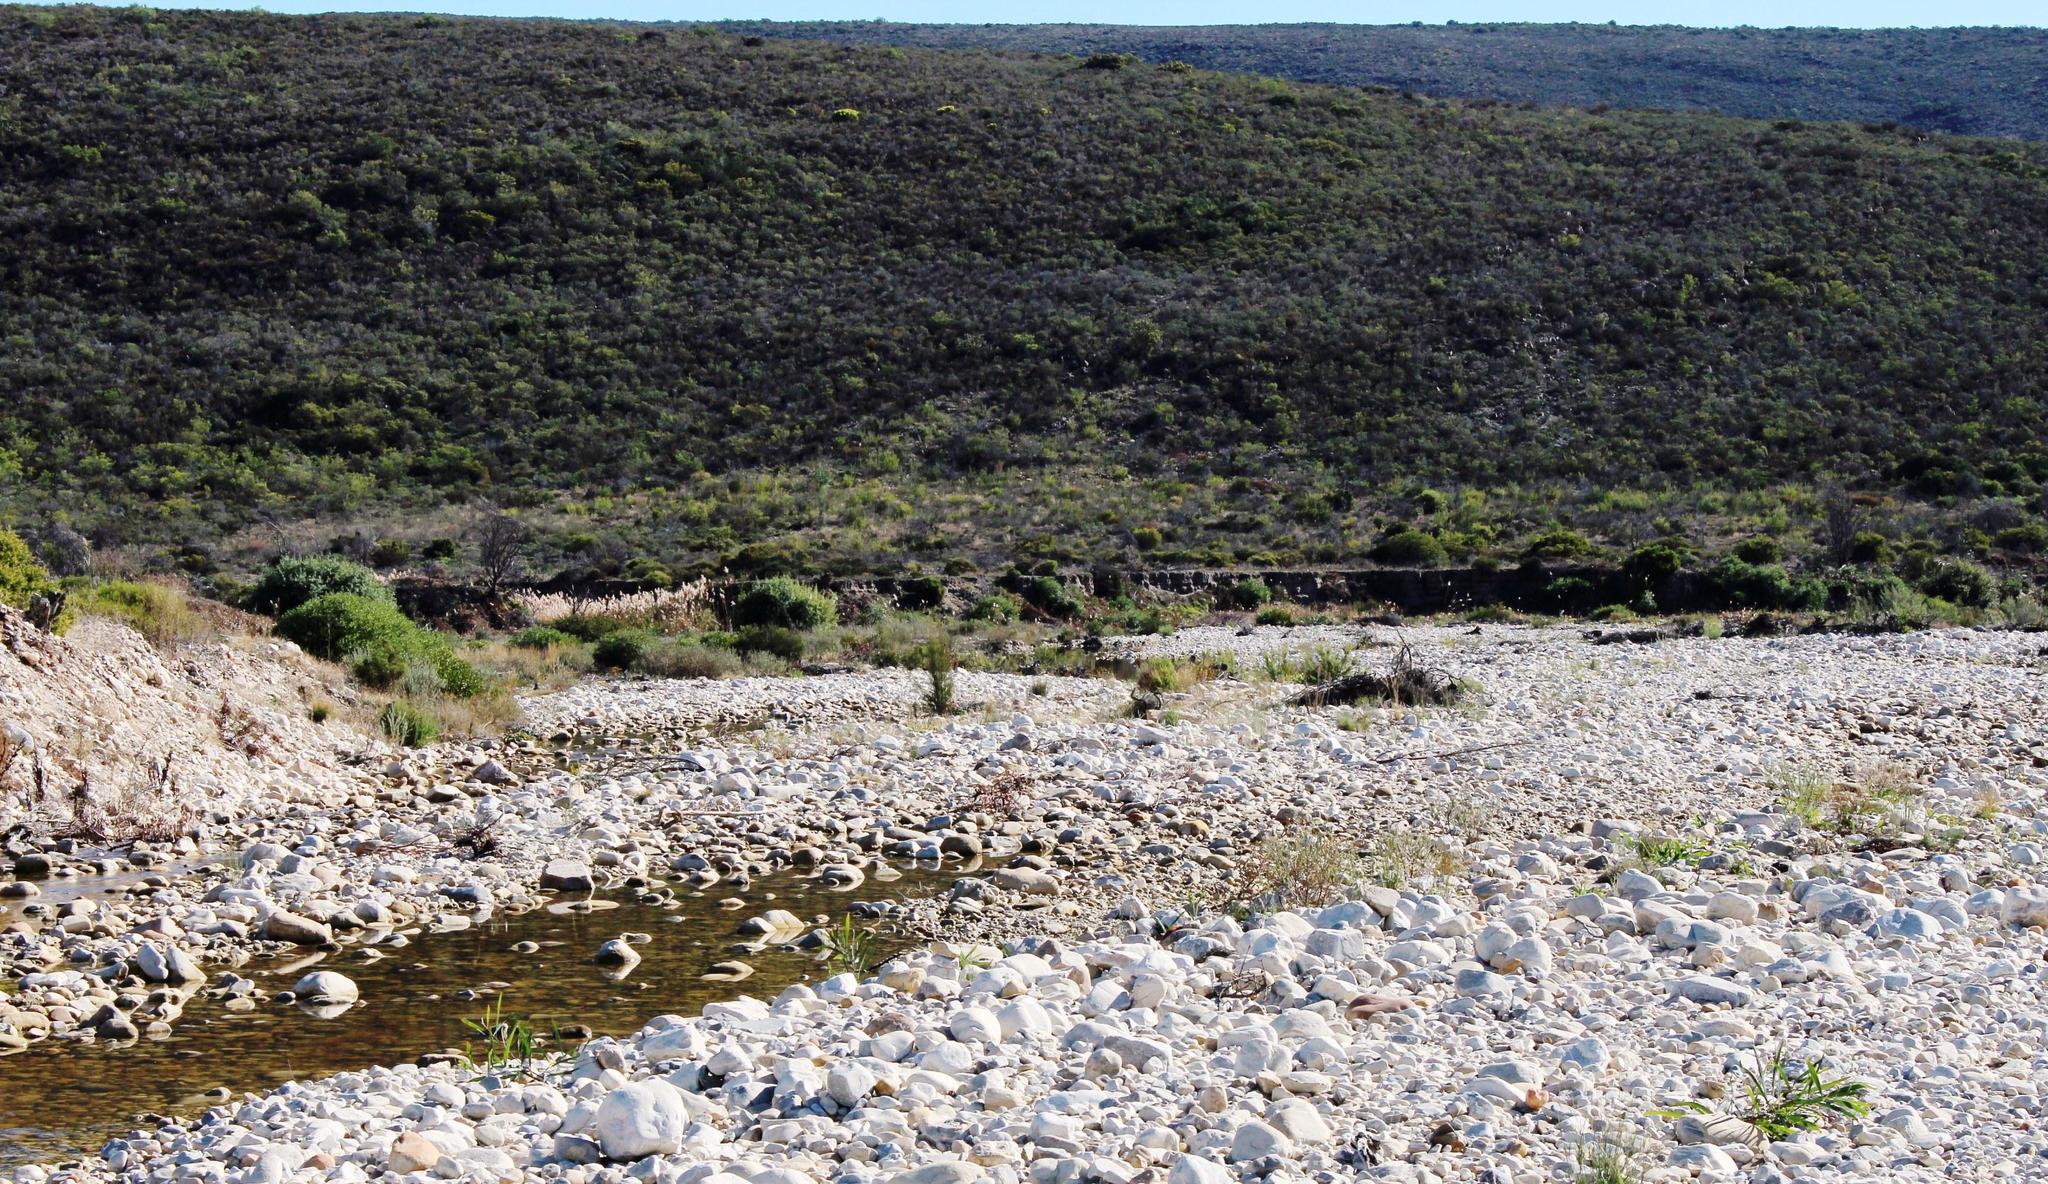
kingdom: Plantae
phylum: Tracheophyta
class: Magnoliopsida
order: Fagales
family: Casuarinaceae
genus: Casuarina
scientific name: Casuarina cunninghamiana
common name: River sheoak
